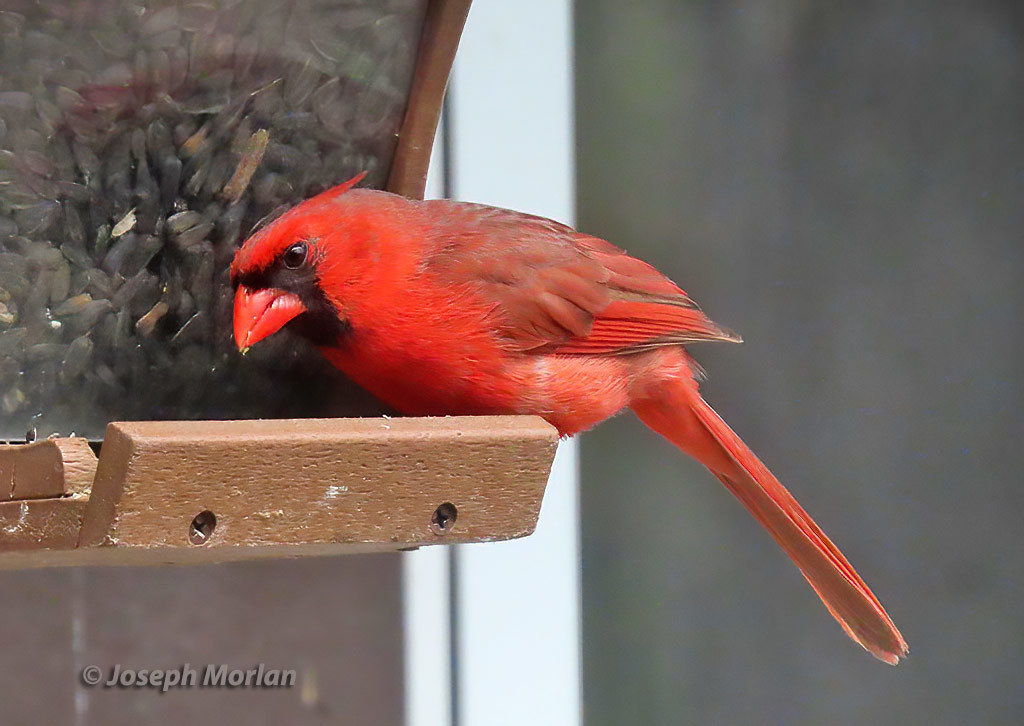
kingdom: Animalia
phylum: Chordata
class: Aves
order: Passeriformes
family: Cardinalidae
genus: Cardinalis
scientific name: Cardinalis cardinalis
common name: Northern cardinal
